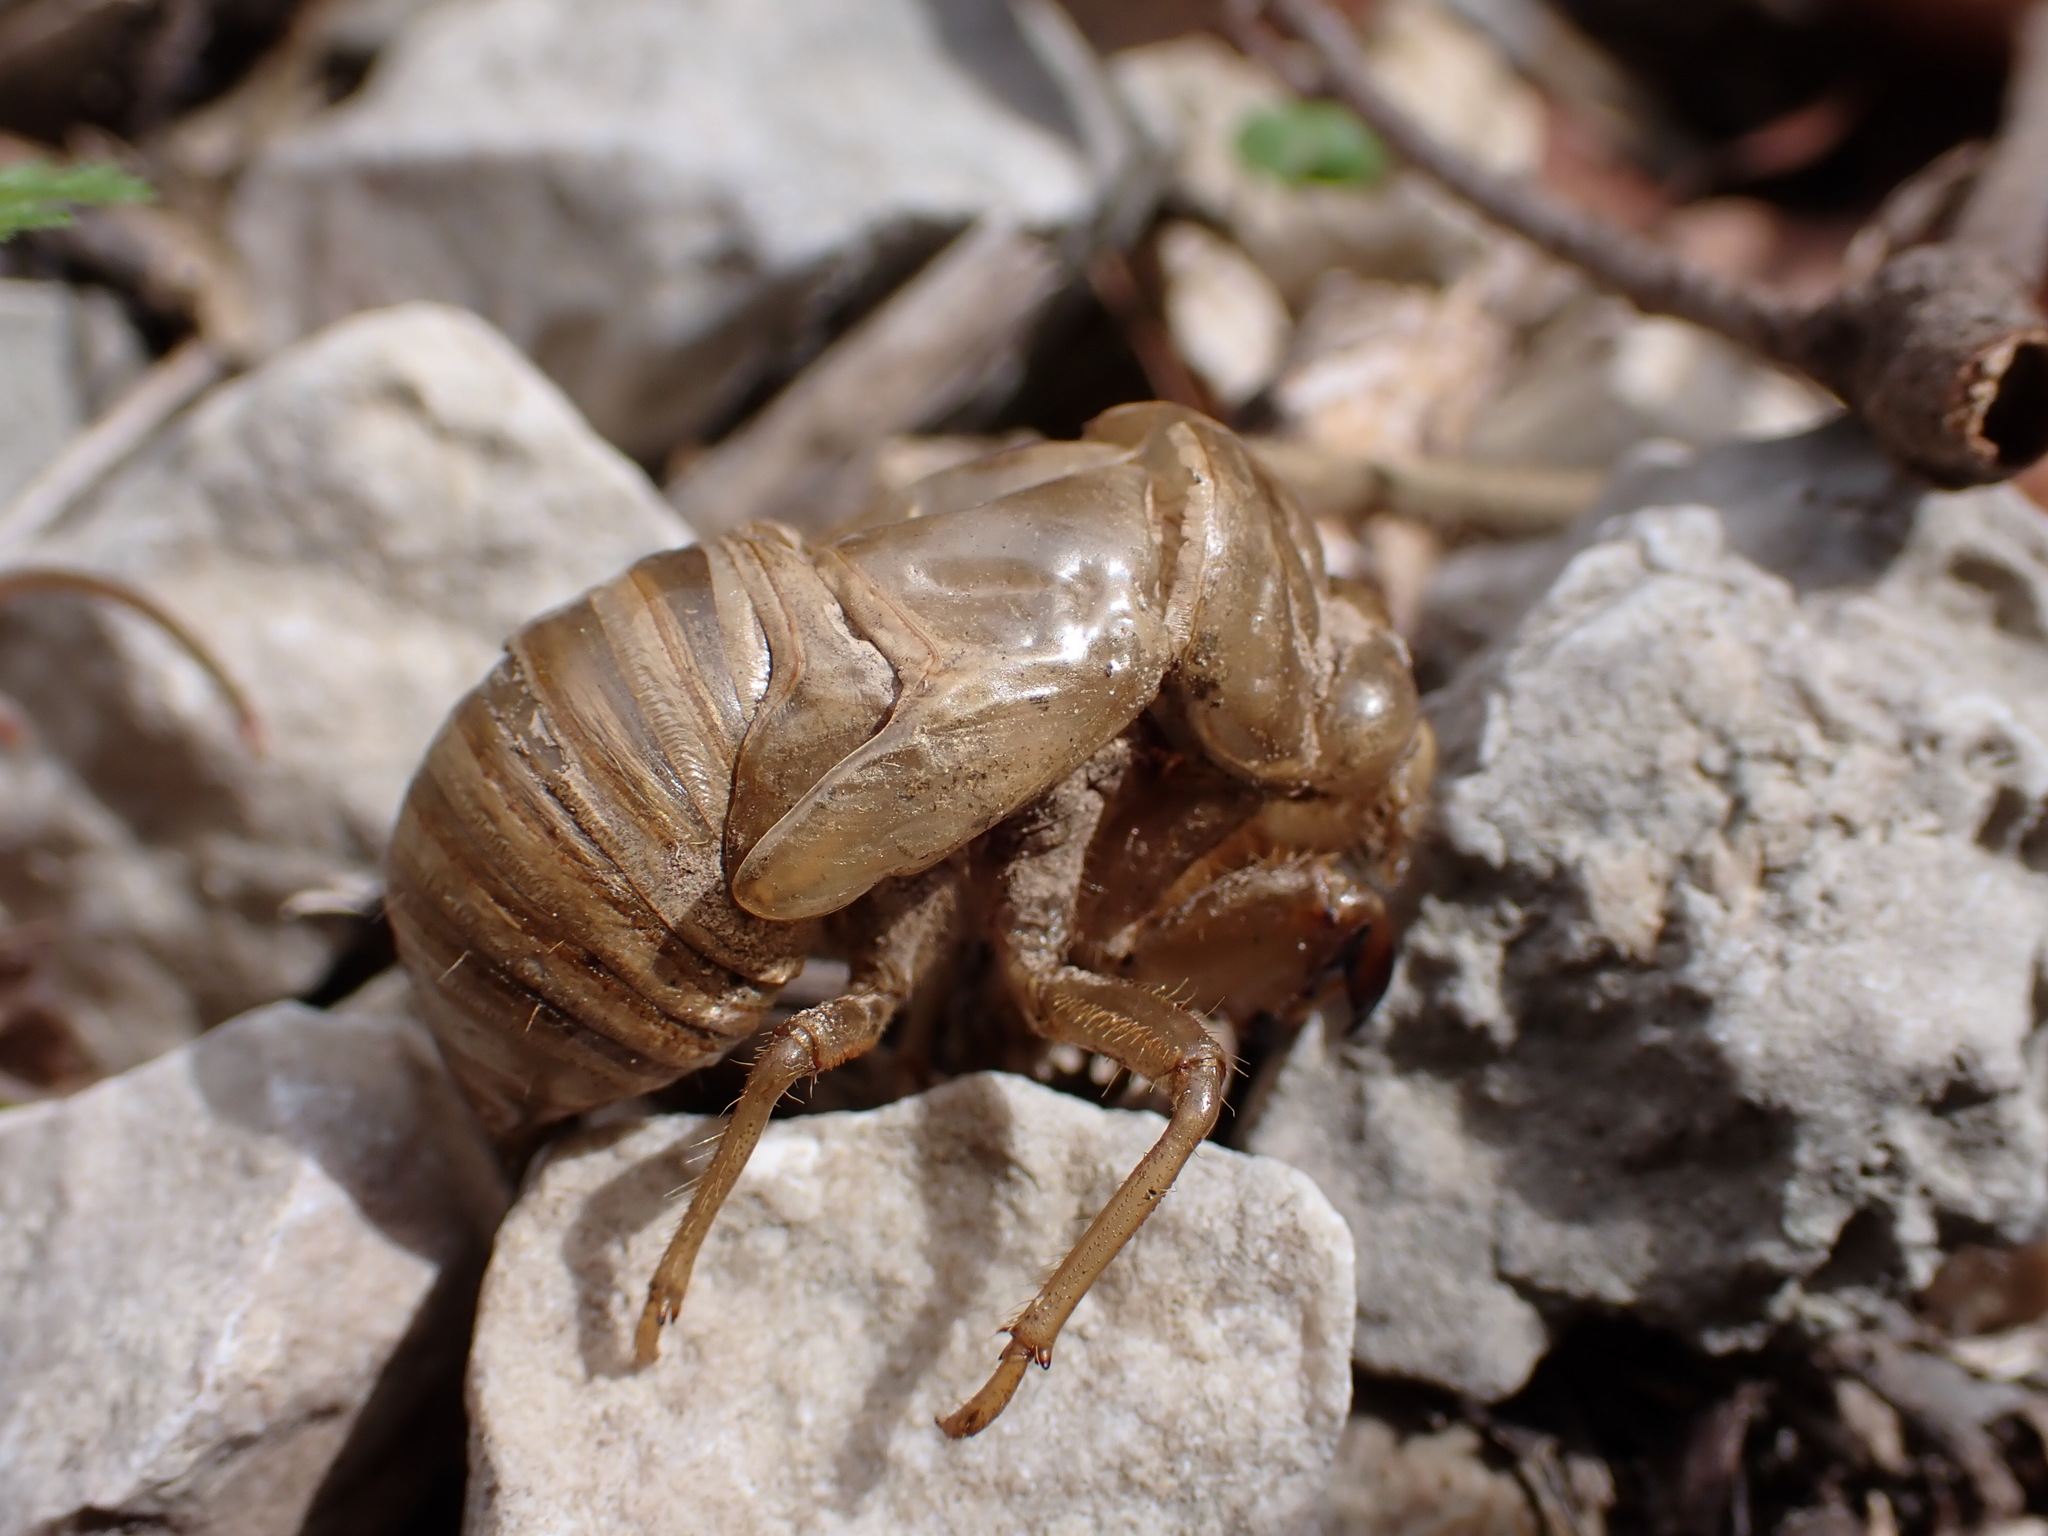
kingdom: Animalia
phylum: Arthropoda
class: Insecta
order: Hemiptera
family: Cicadidae
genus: Lyristes
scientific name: Lyristes plebejus
